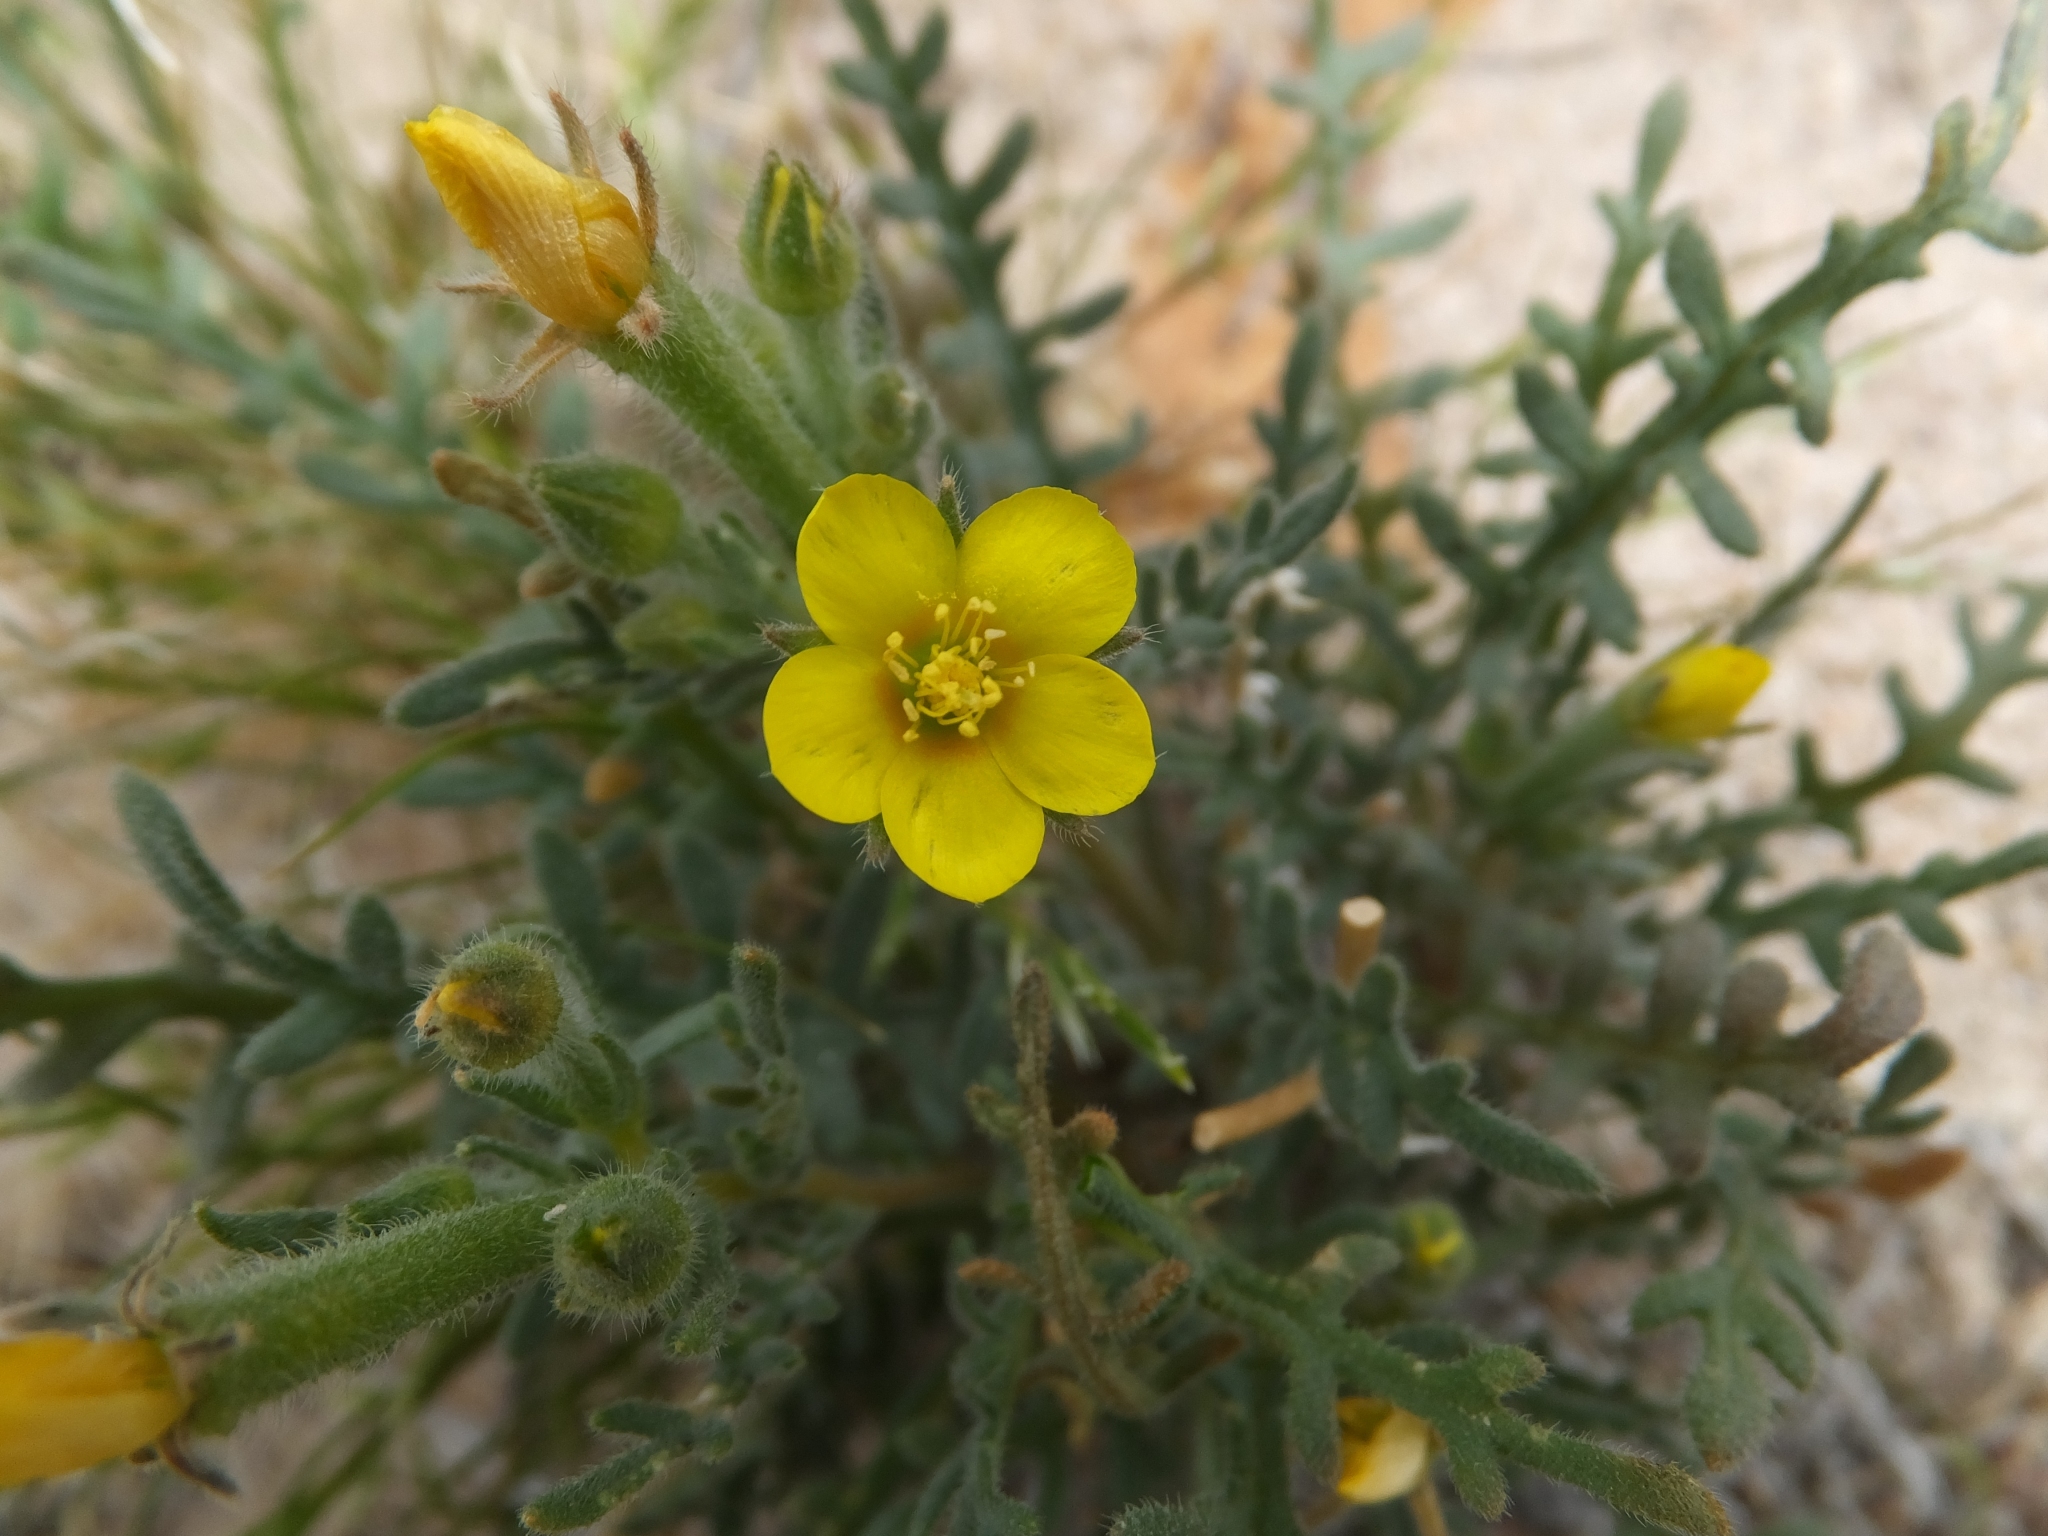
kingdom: Plantae
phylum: Tracheophyta
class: Magnoliopsida
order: Cornales
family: Loasaceae
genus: Mentzelia
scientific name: Mentzelia albicaulis
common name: White-stem blazingstar
